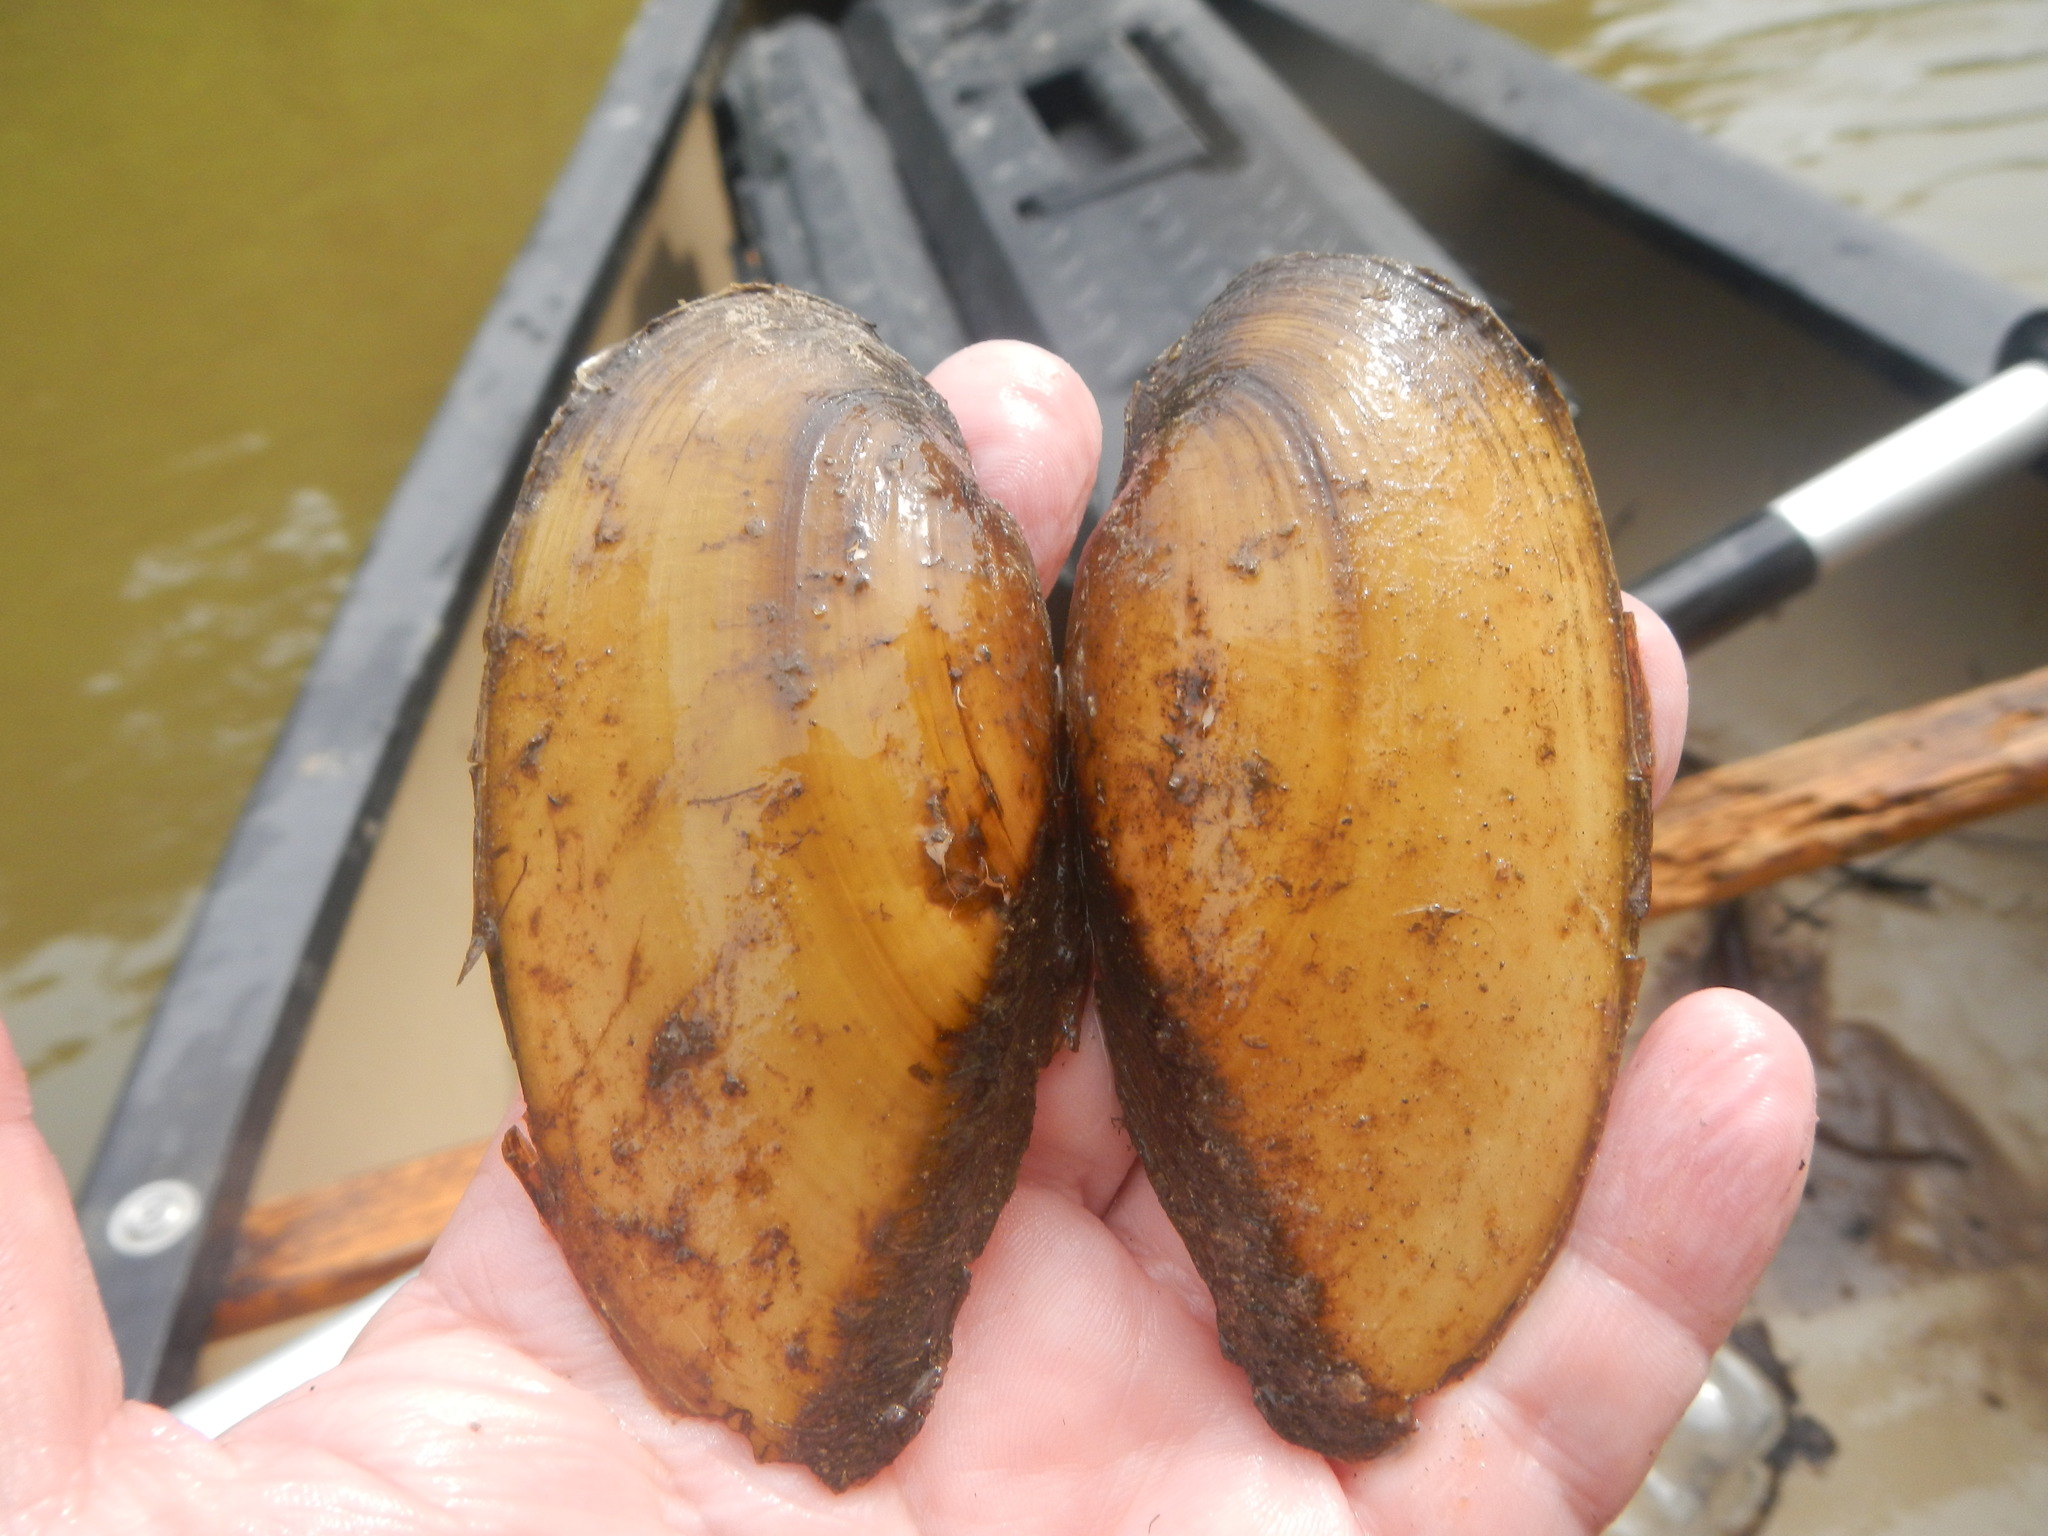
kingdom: Animalia
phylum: Mollusca
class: Bivalvia
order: Unionida
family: Unionidae
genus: Lampsilis
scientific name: Lampsilis teres
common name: Yellow sandshell
